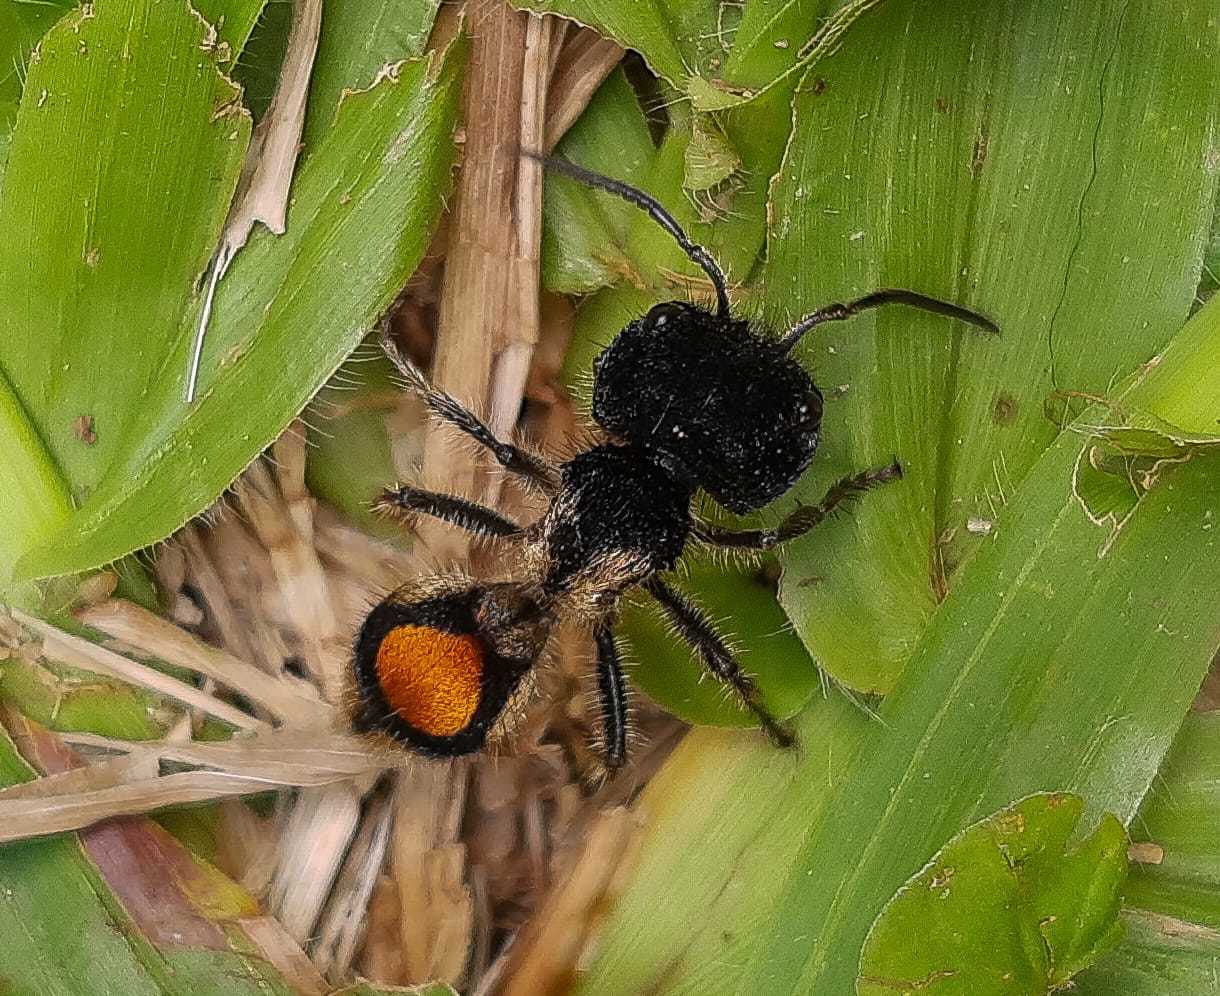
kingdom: Animalia
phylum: Arthropoda
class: Insecta
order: Hymenoptera
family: Mutillidae
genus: Hoplocrates
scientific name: Hoplocrates
